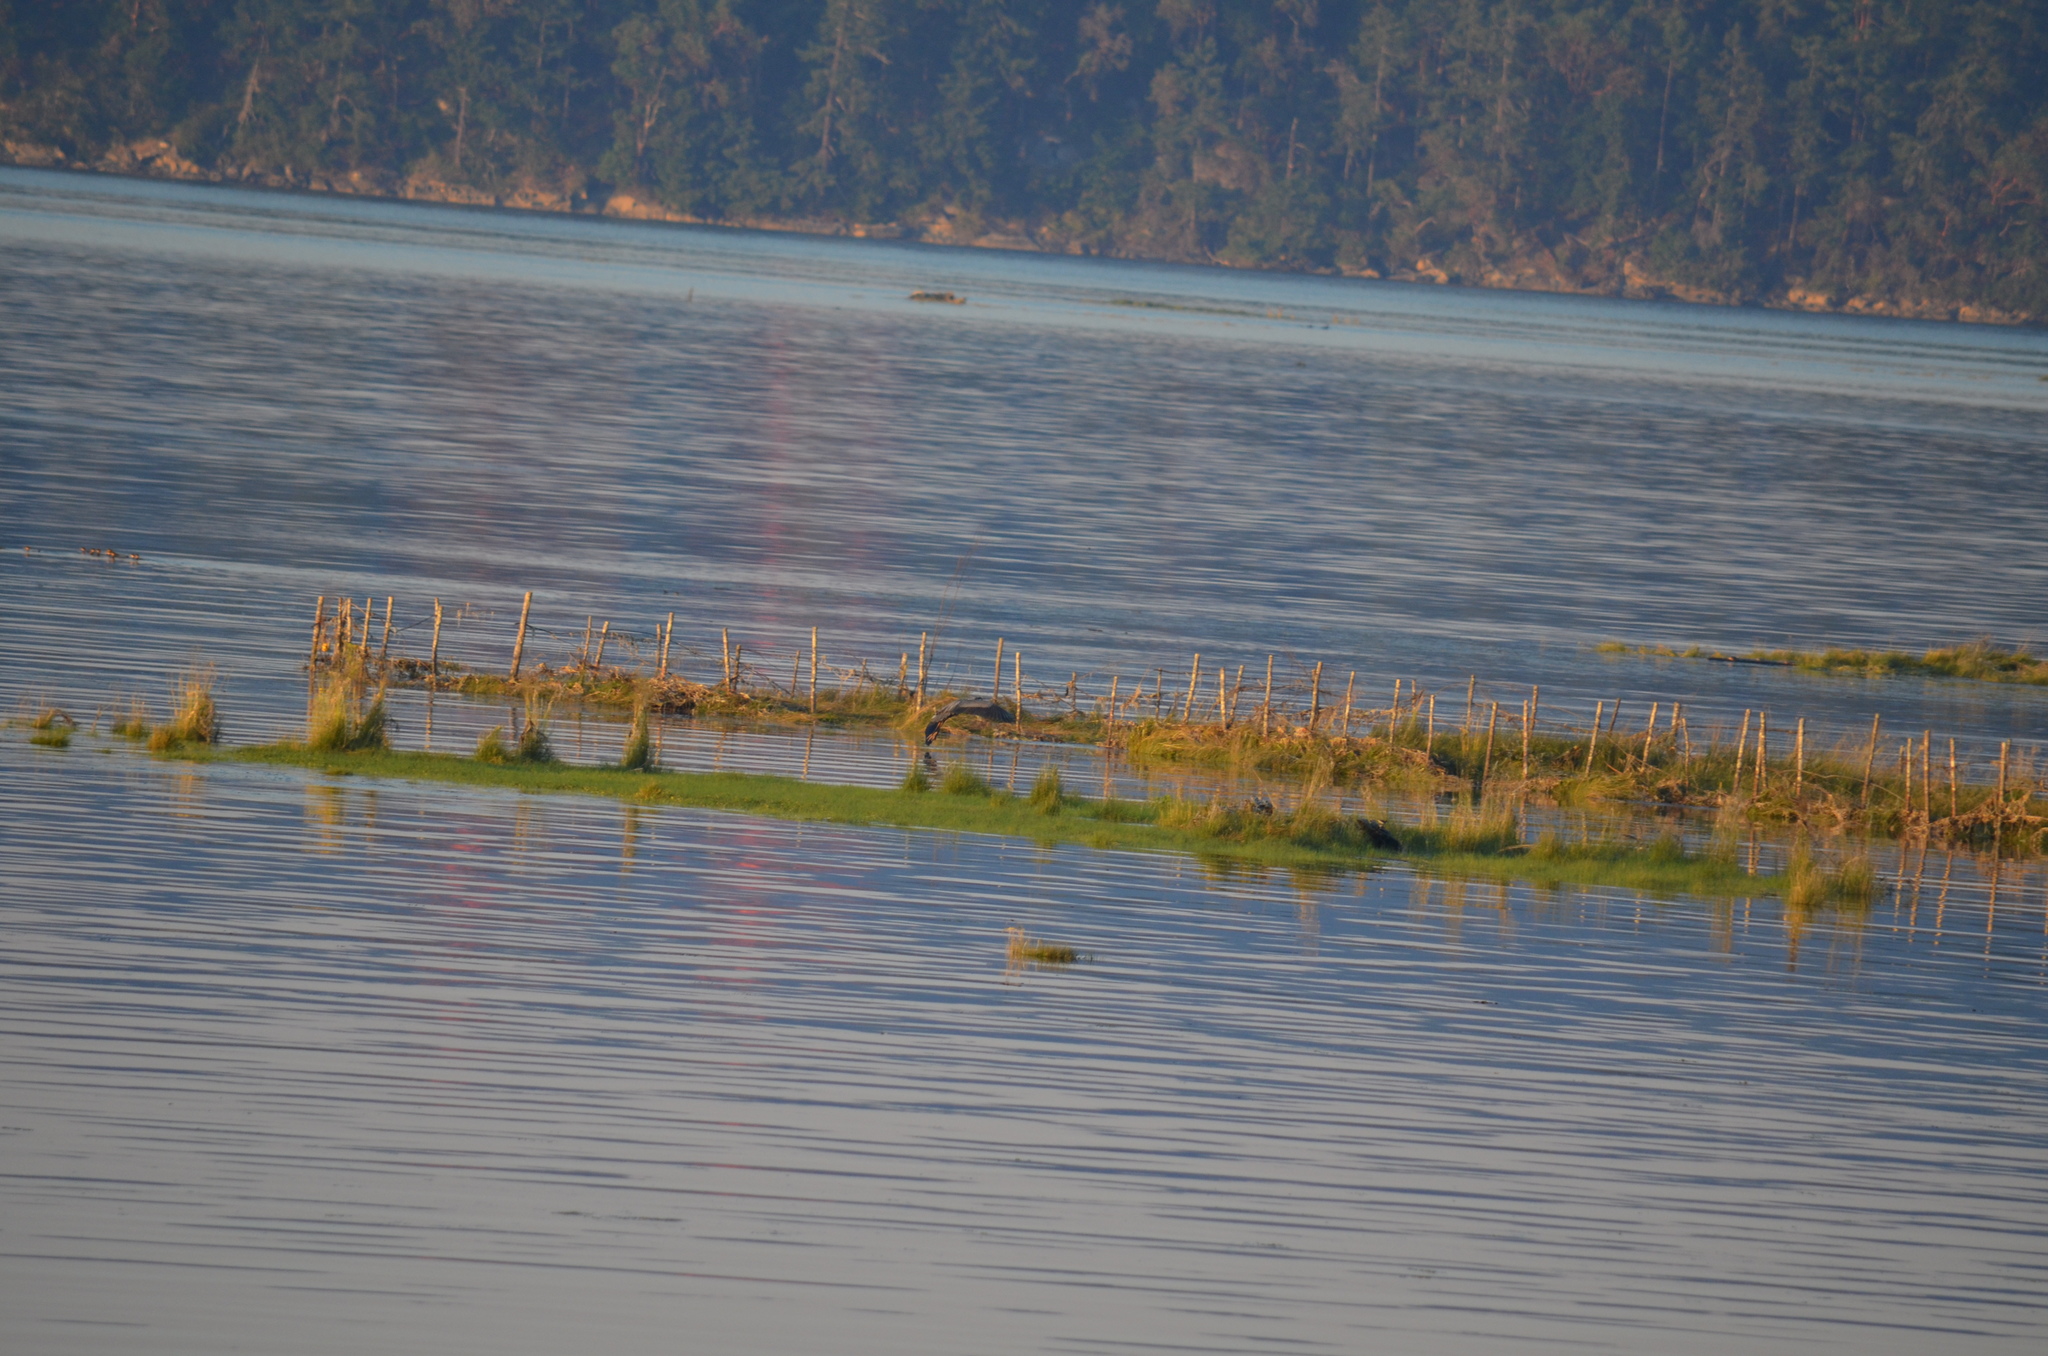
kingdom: Animalia
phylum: Chordata
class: Aves
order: Pelecaniformes
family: Ardeidae
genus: Ardea
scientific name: Ardea herodias
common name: Great blue heron
